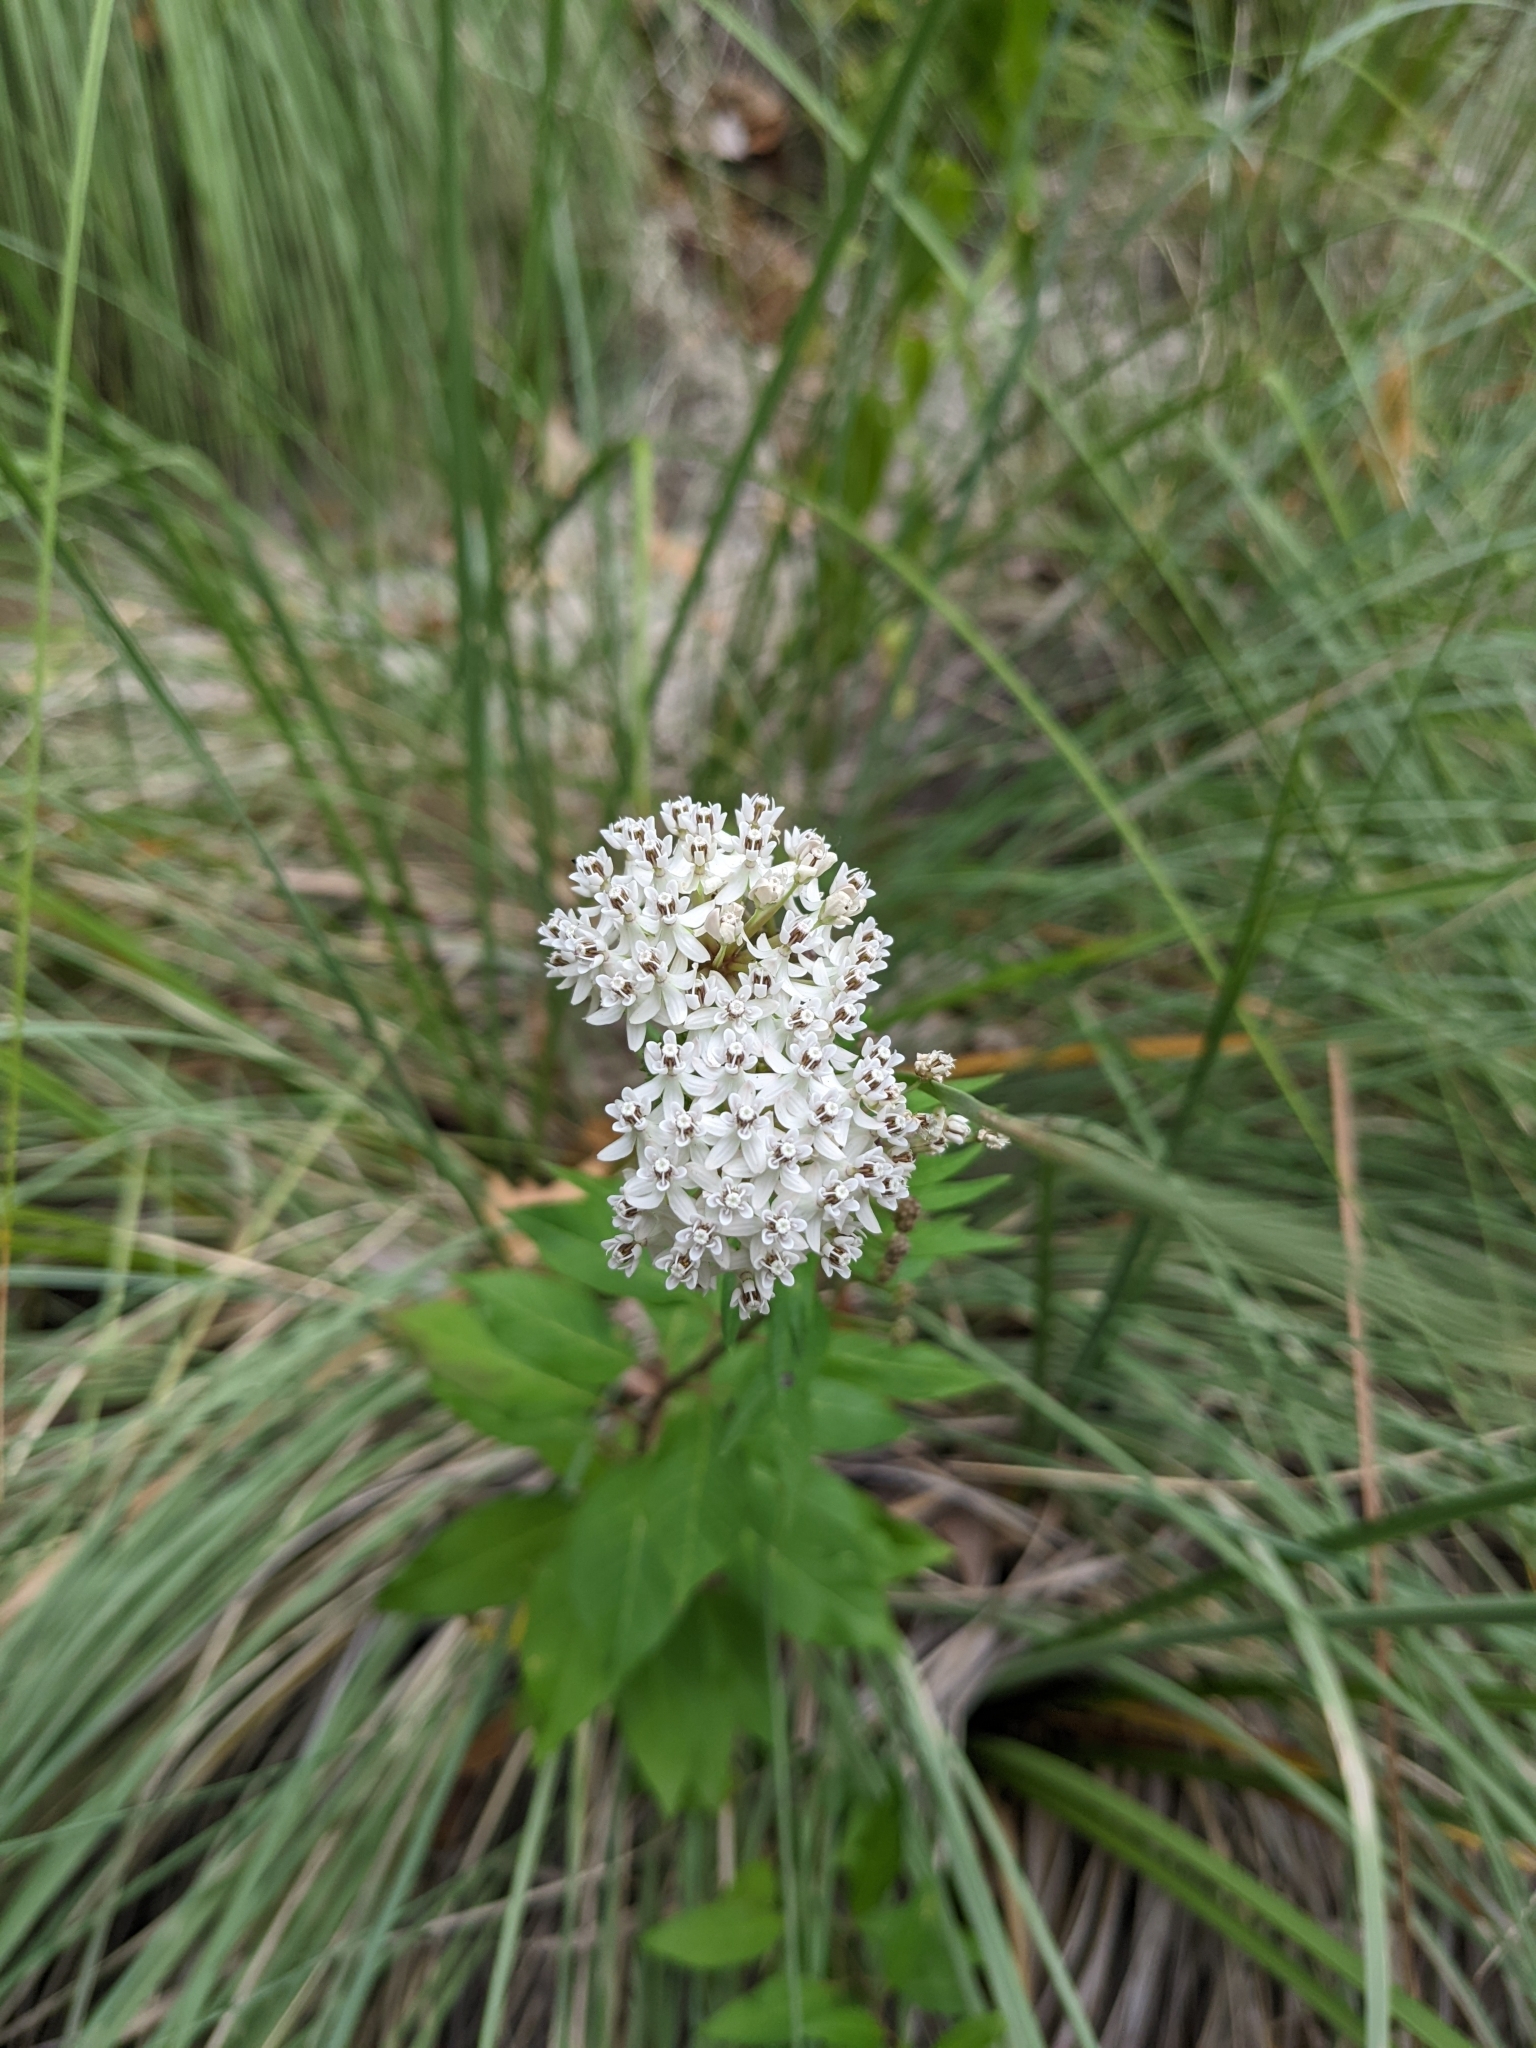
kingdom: Plantae
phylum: Tracheophyta
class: Magnoliopsida
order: Gentianales
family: Apocynaceae
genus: Asclepias
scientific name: Asclepias texana
